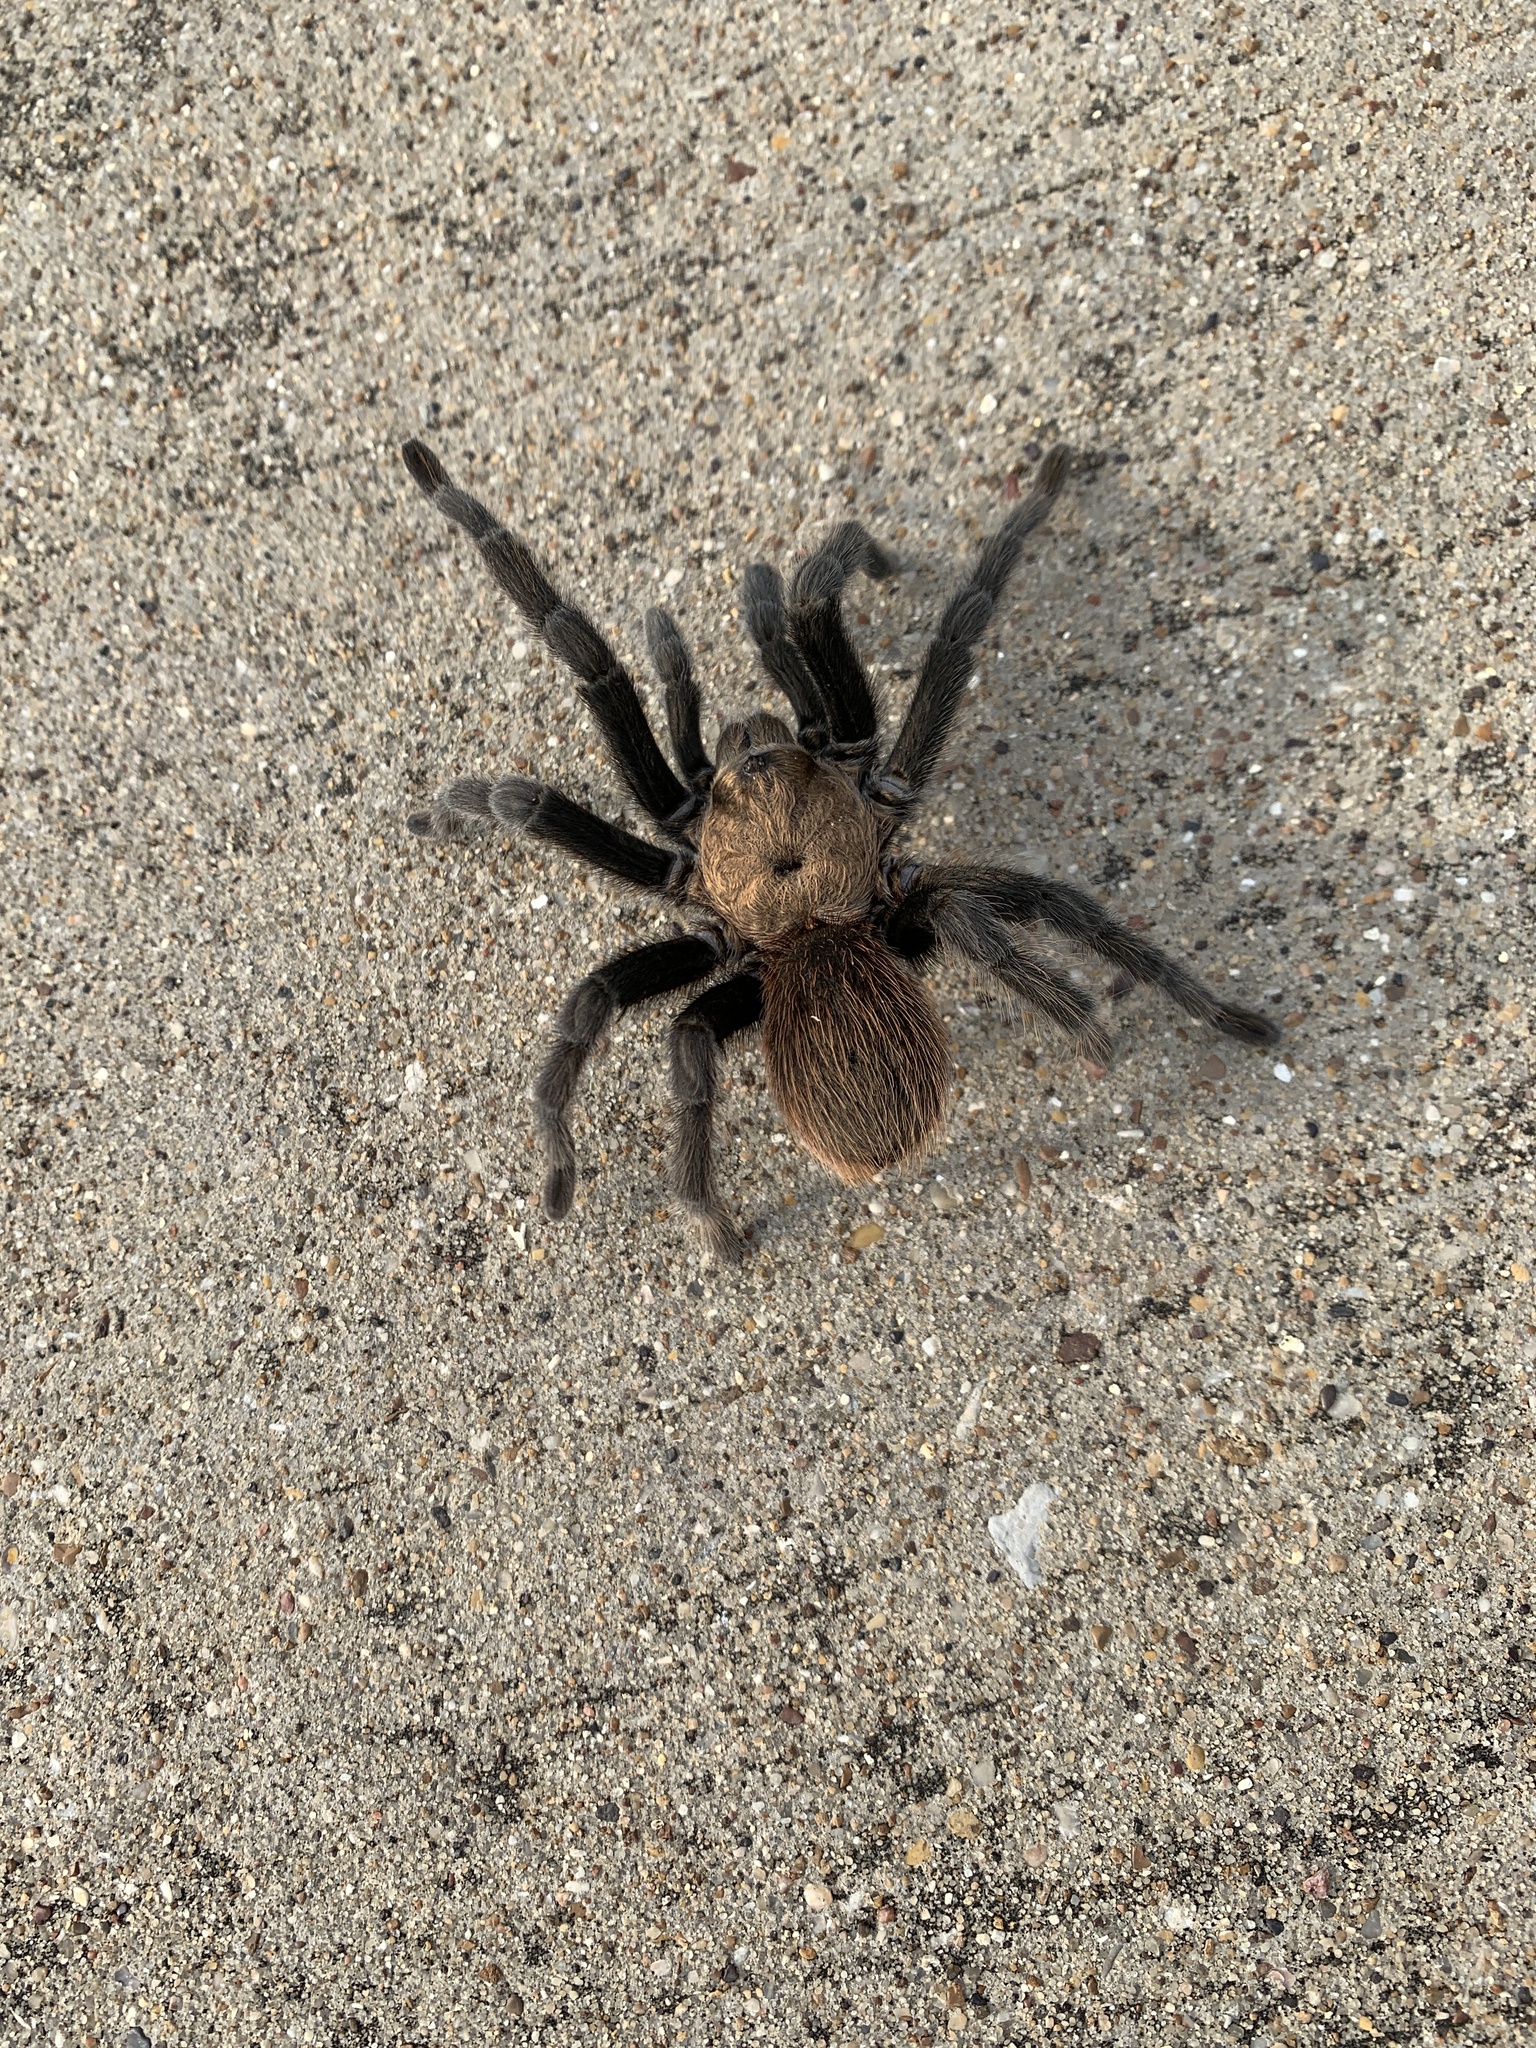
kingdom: Animalia
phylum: Arthropoda
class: Arachnida
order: Araneae
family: Theraphosidae
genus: Aphonopelma
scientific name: Aphonopelma hentzi
